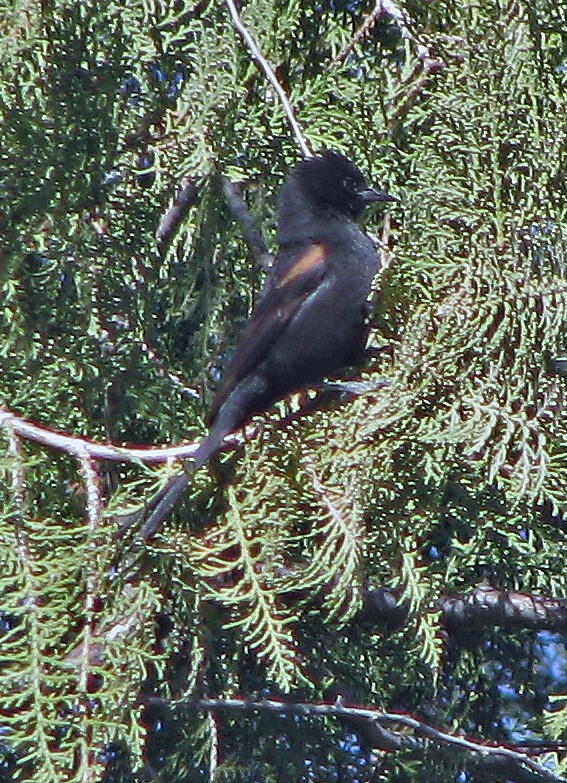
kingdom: Animalia
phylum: Chordata
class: Aves
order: Passeriformes
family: Icteridae
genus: Icterus
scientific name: Icterus cayanensis
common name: Epaulet oriole
